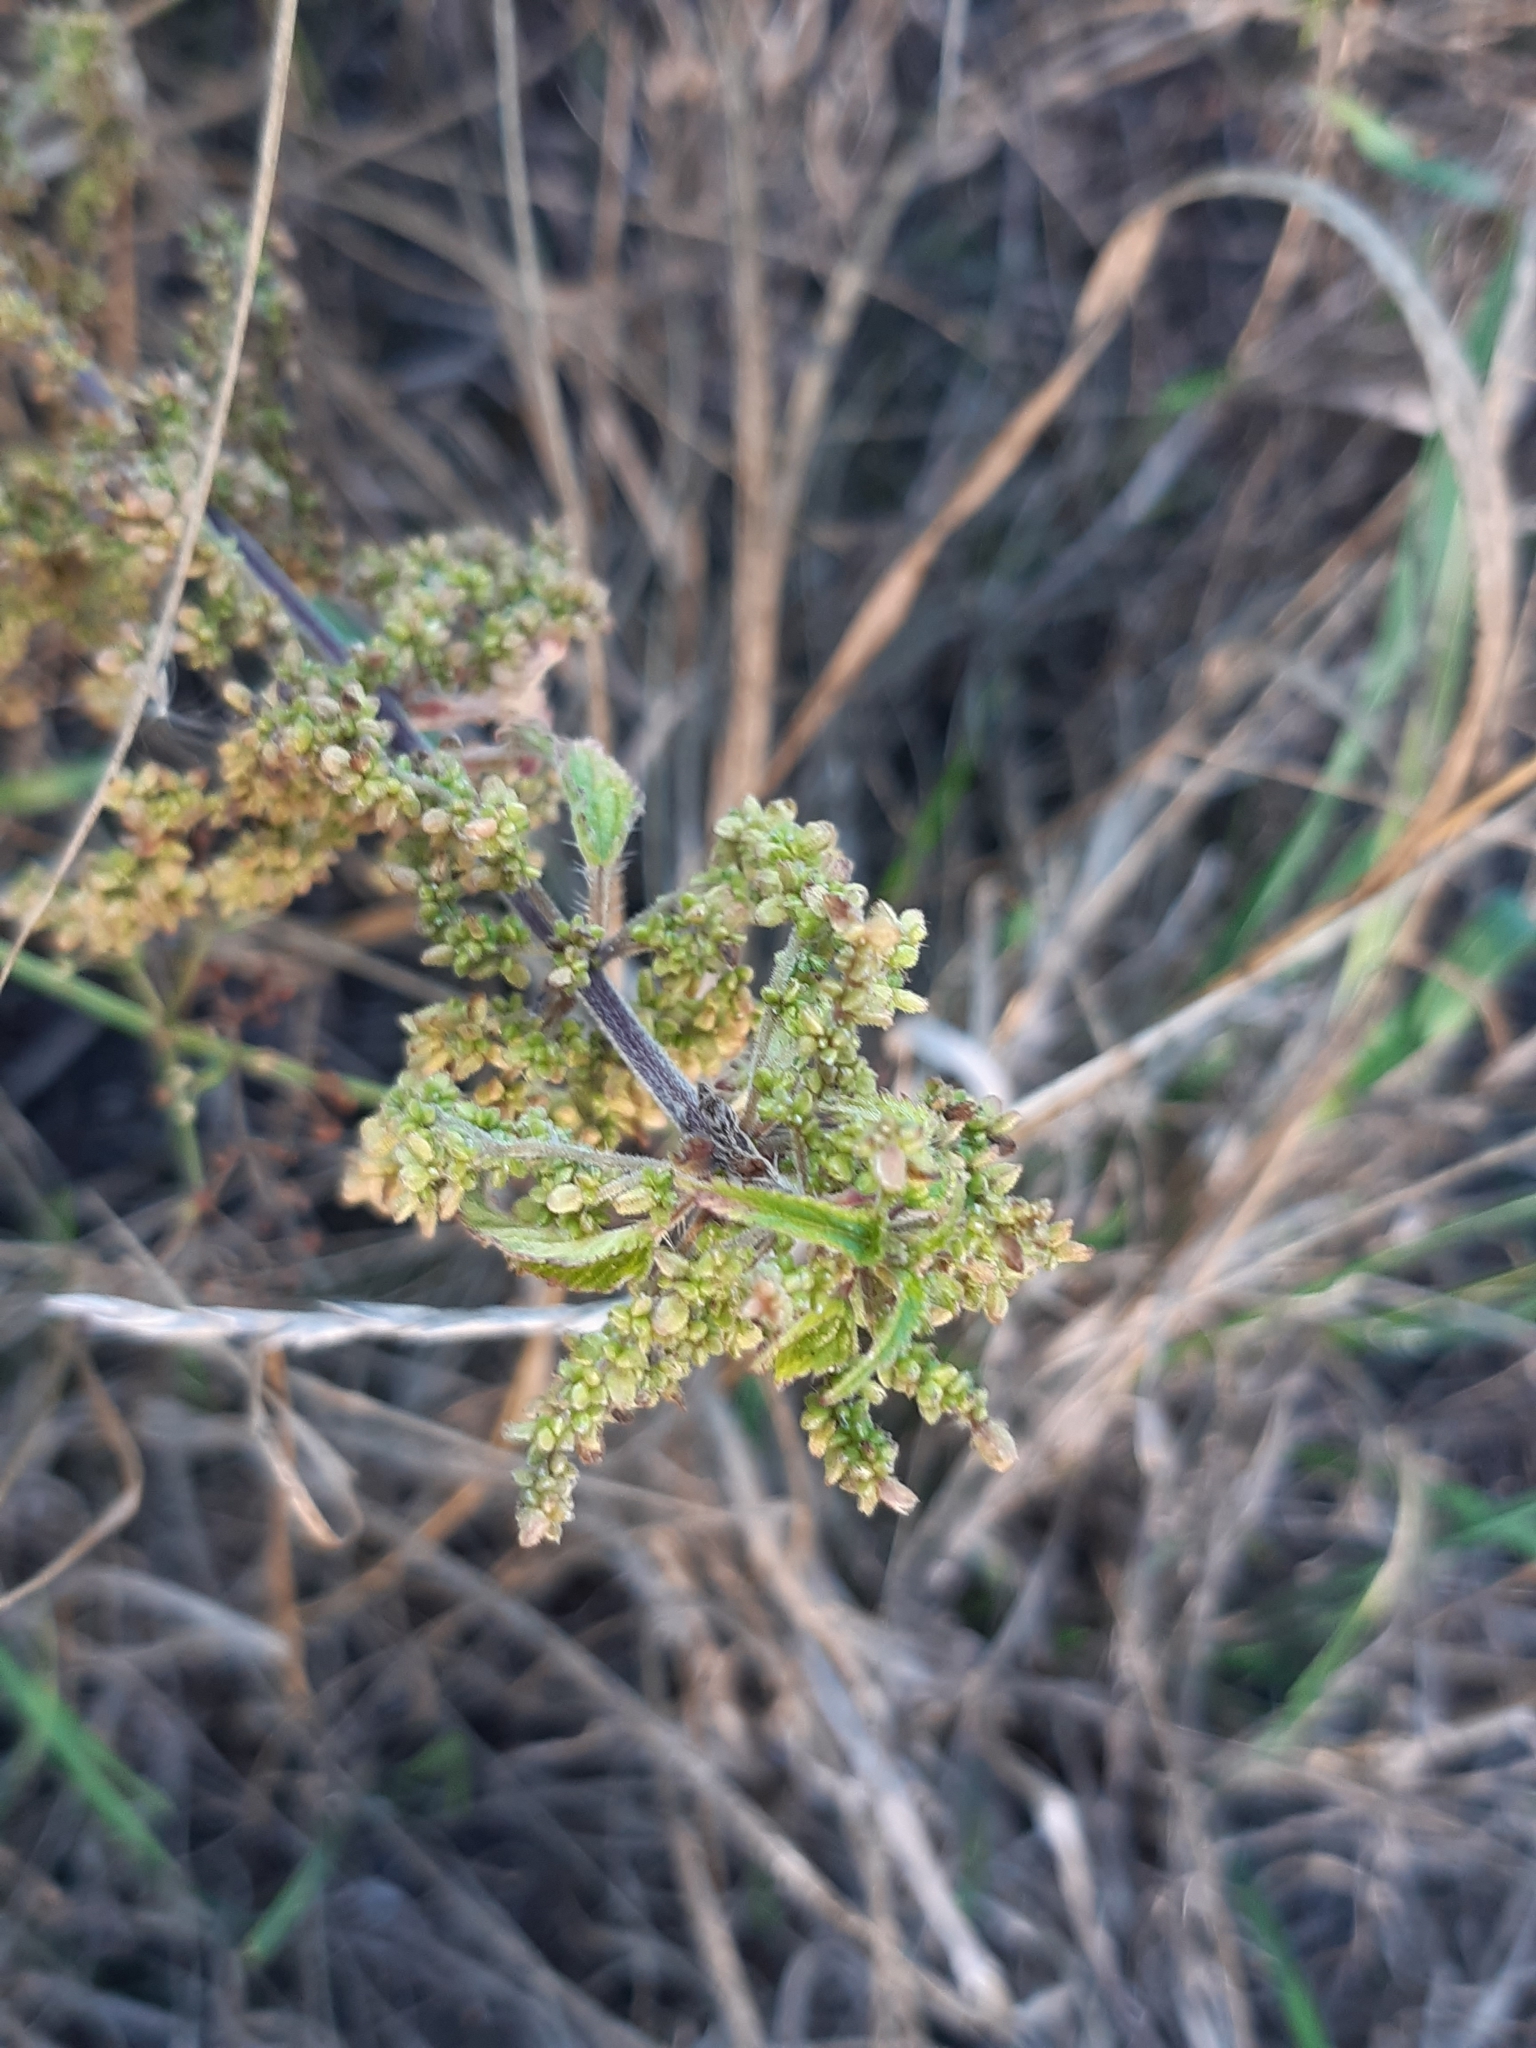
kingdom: Plantae
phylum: Tracheophyta
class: Magnoliopsida
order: Rosales
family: Urticaceae
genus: Urtica
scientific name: Urtica dioica
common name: Common nettle
